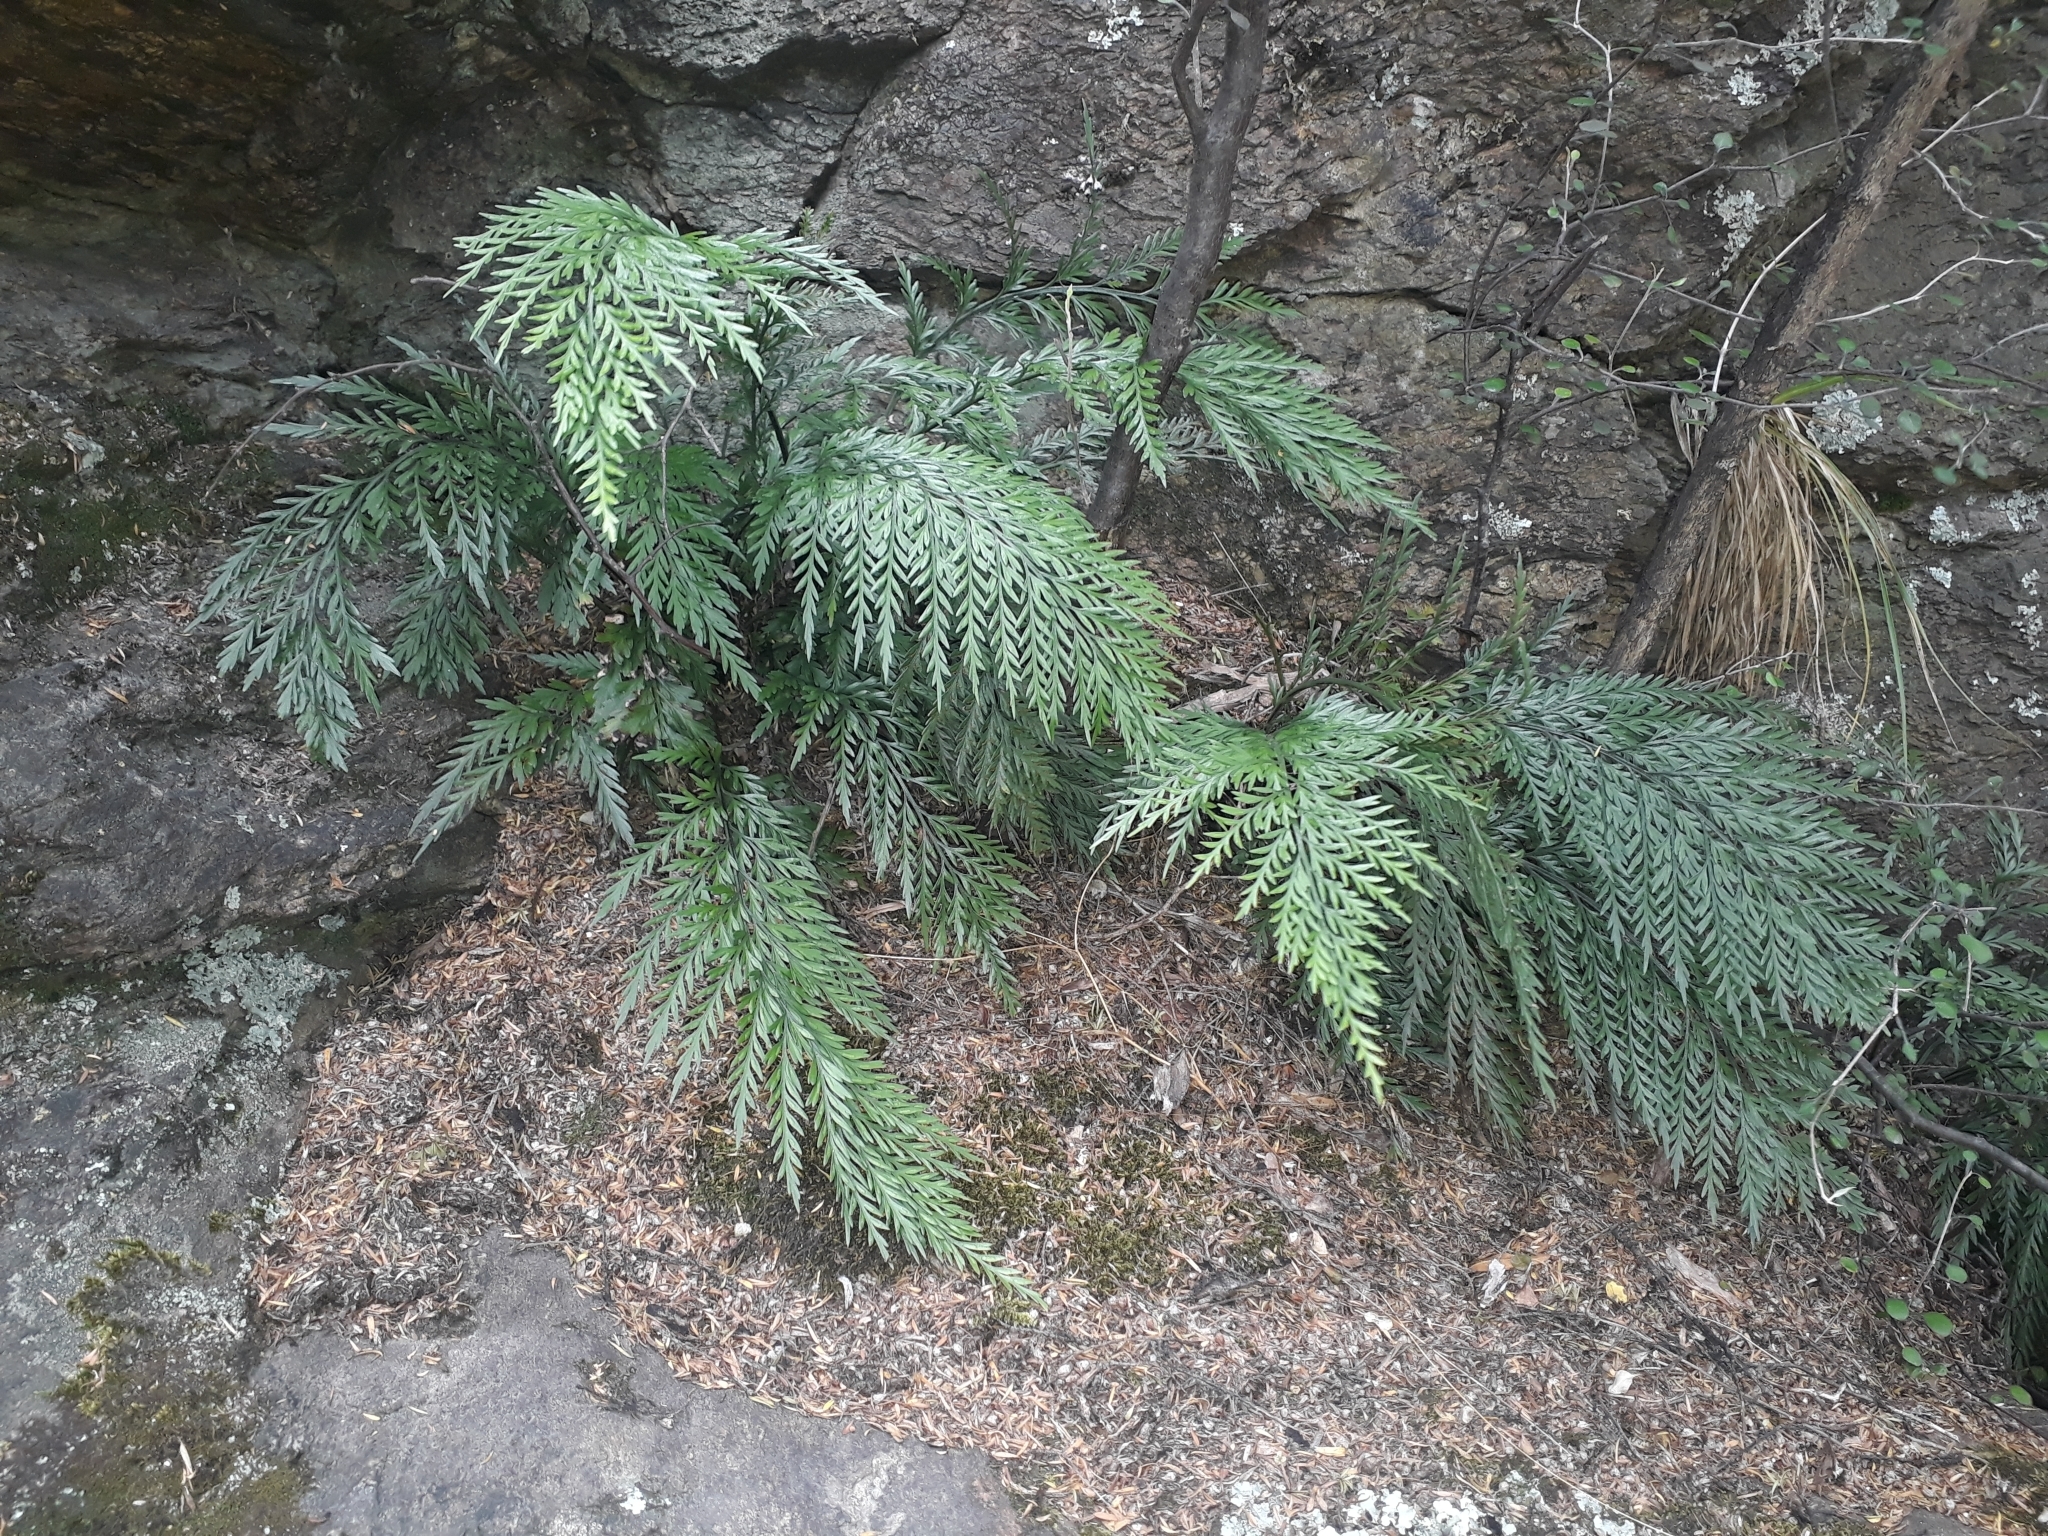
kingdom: Plantae
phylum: Tracheophyta
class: Polypodiopsida
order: Polypodiales
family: Aspleniaceae
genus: Asplenium
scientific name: Asplenium appendiculatum
